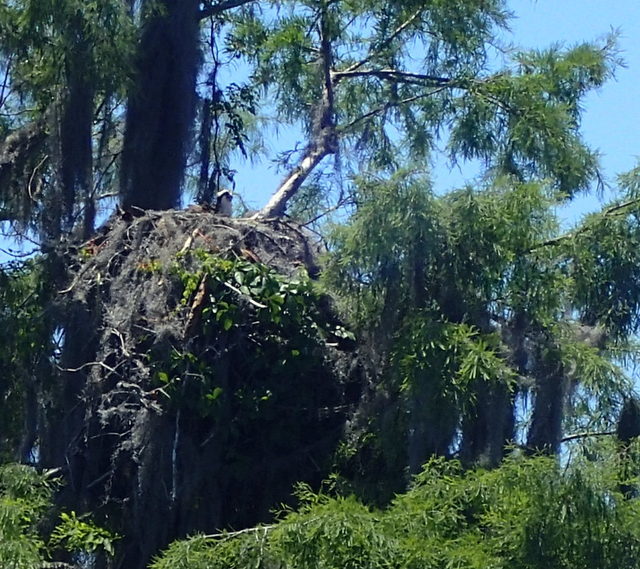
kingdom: Animalia
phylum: Chordata
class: Aves
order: Accipitriformes
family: Pandionidae
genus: Pandion
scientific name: Pandion haliaetus
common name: Osprey
